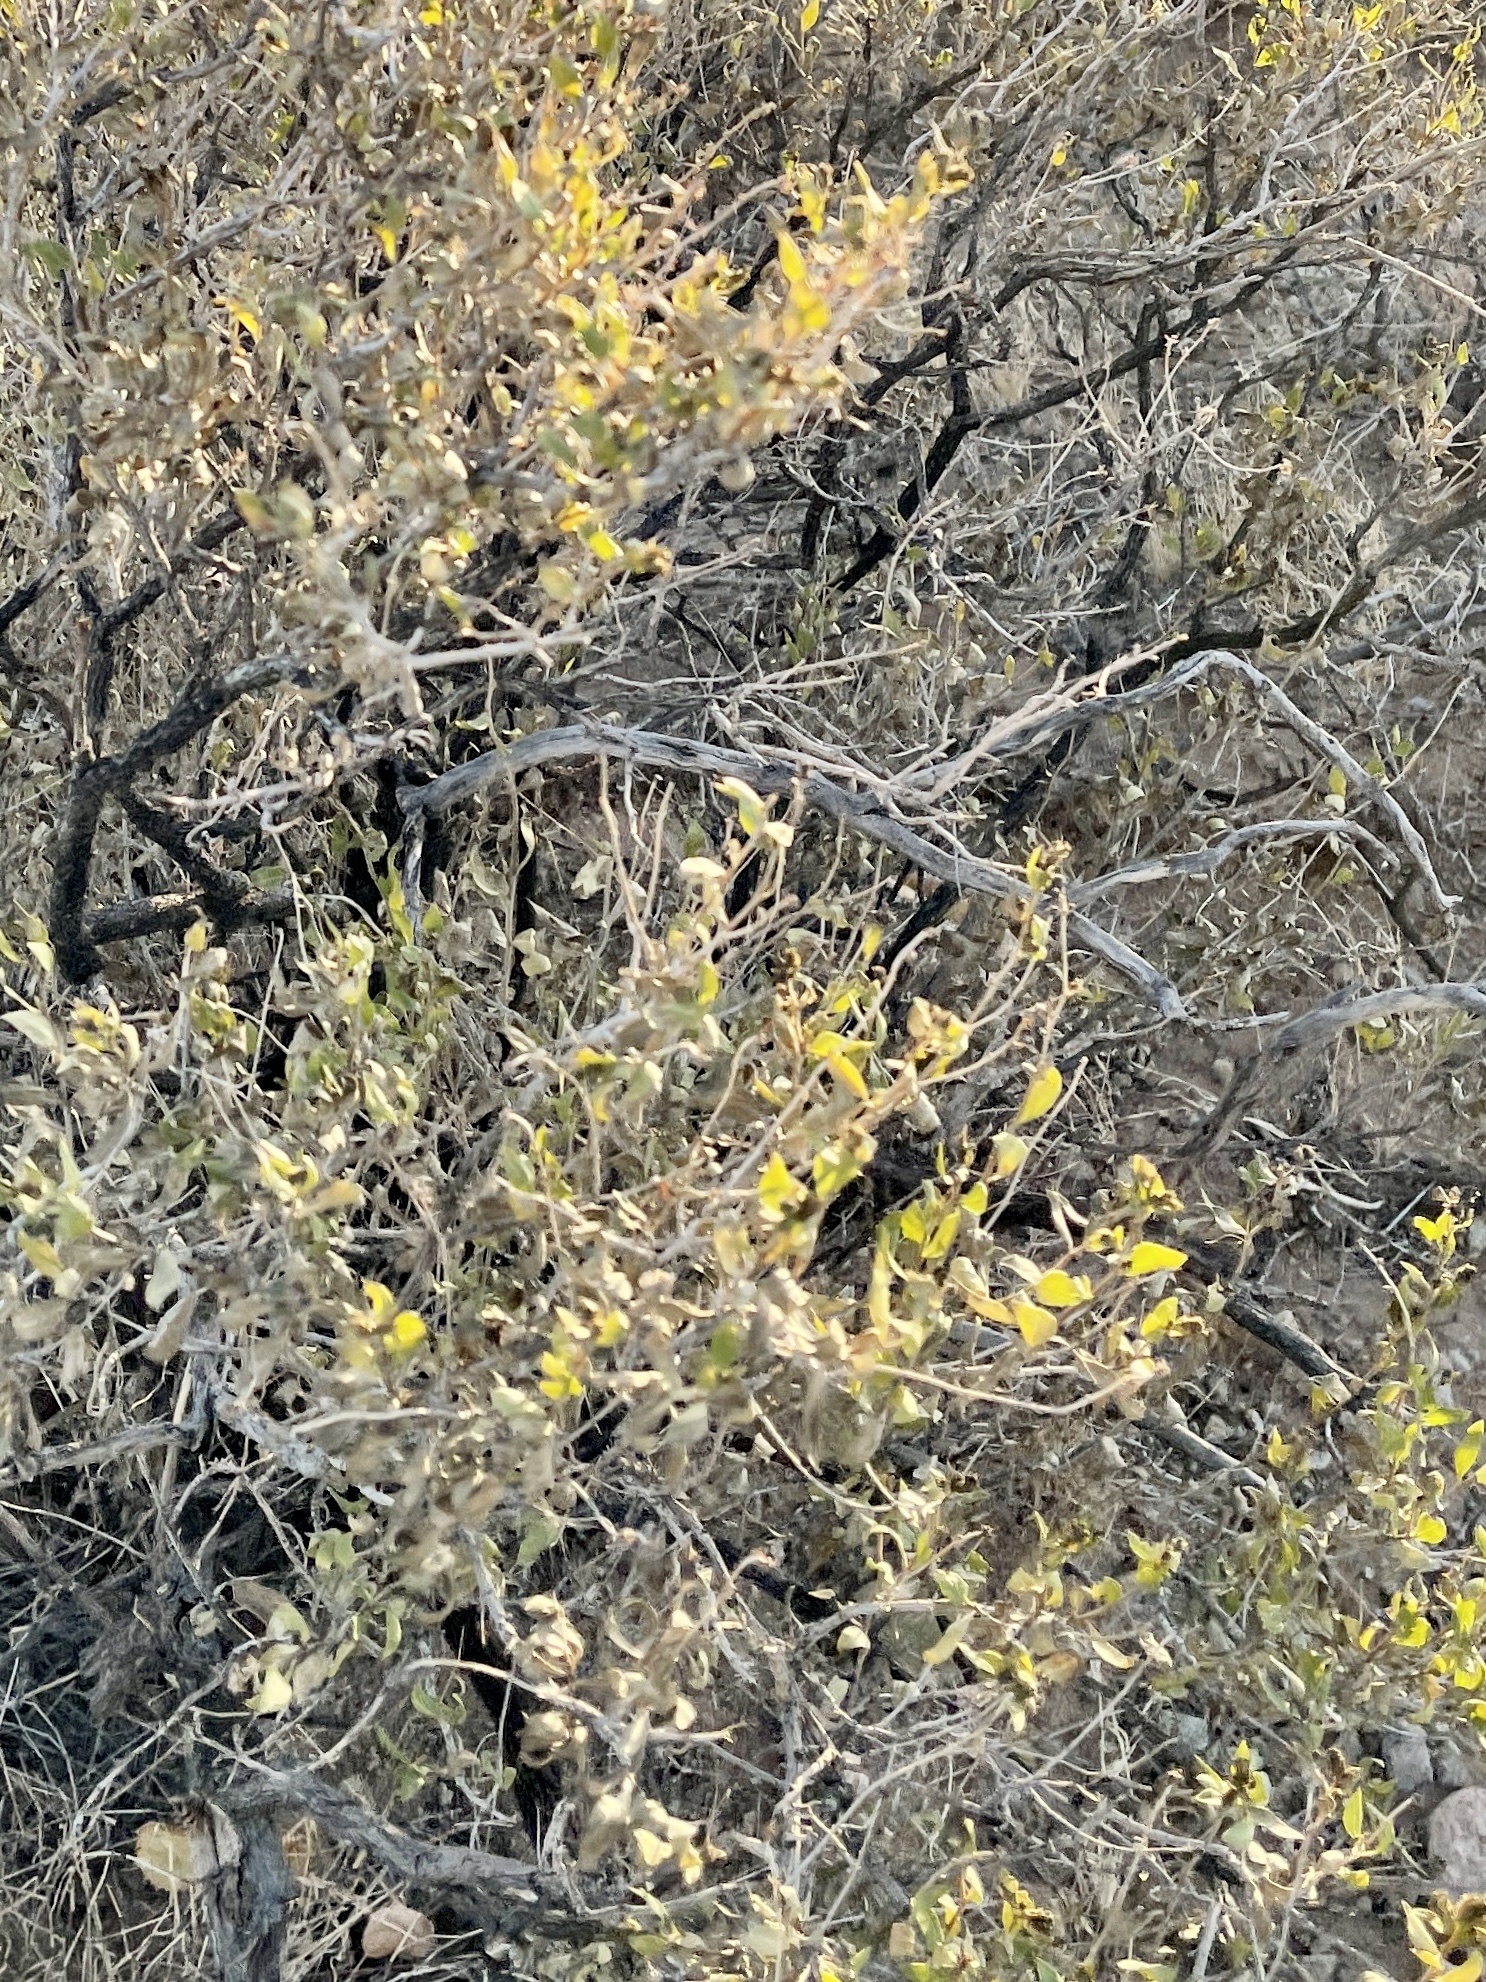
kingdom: Plantae
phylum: Tracheophyta
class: Magnoliopsida
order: Asterales
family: Asteraceae
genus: Flourensia
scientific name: Flourensia cernua
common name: Varnishbush
